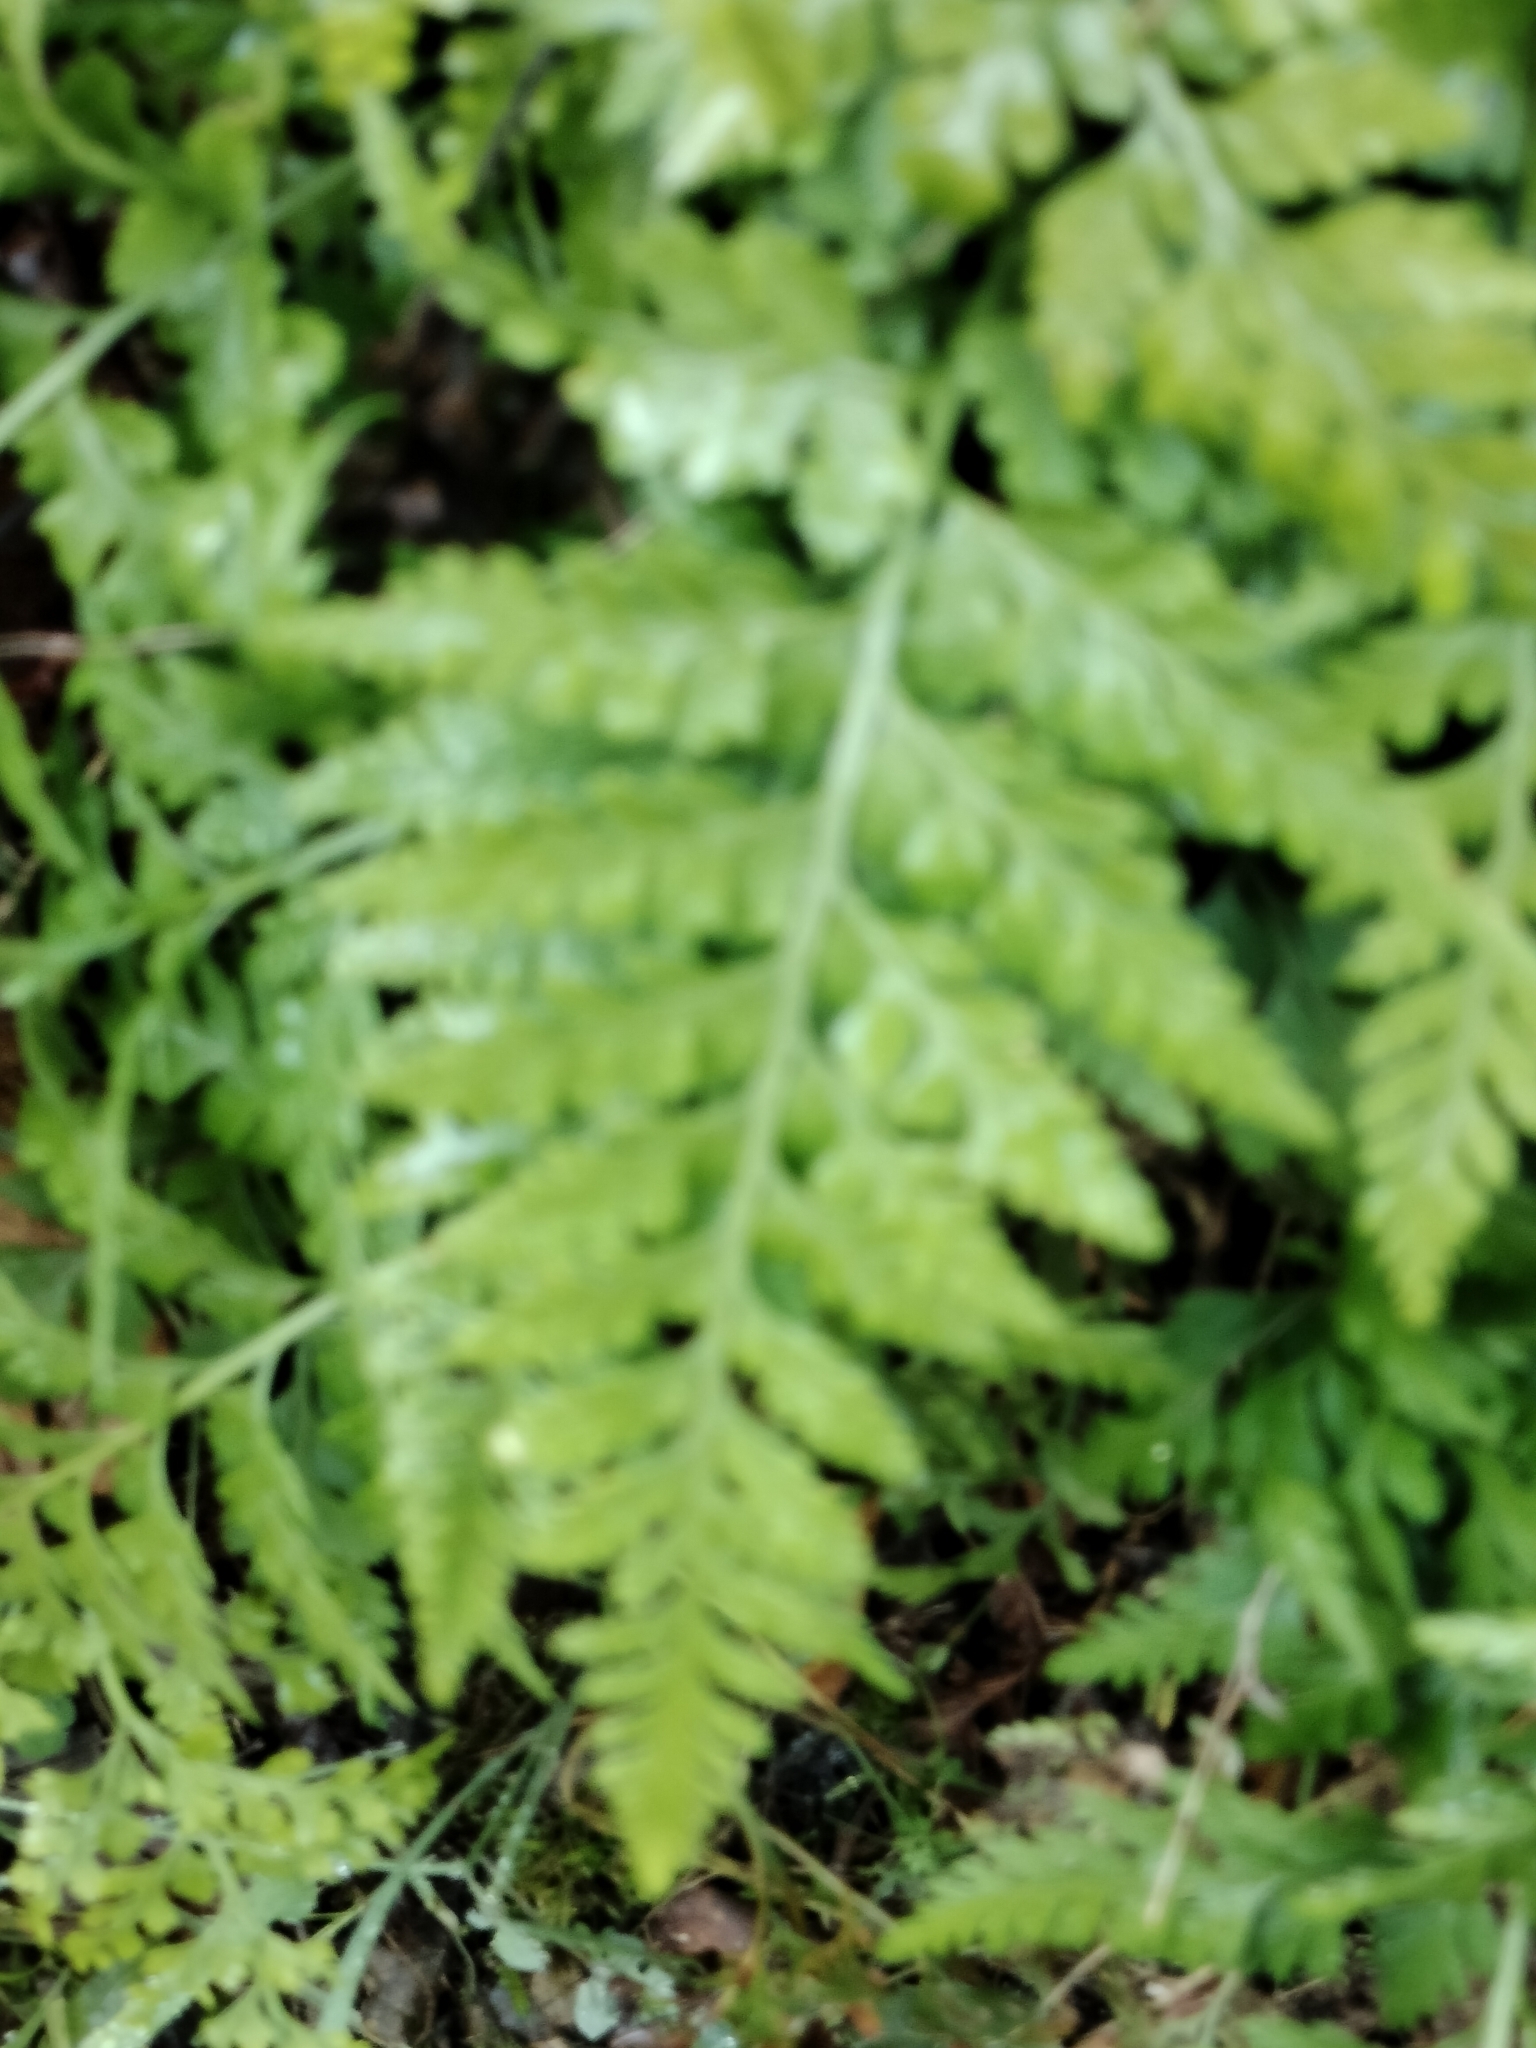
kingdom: Plantae
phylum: Tracheophyta
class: Polypodiopsida
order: Polypodiales
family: Aspleniaceae
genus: Asplenium
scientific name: Asplenium onopteris
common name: Irish spleenwort
